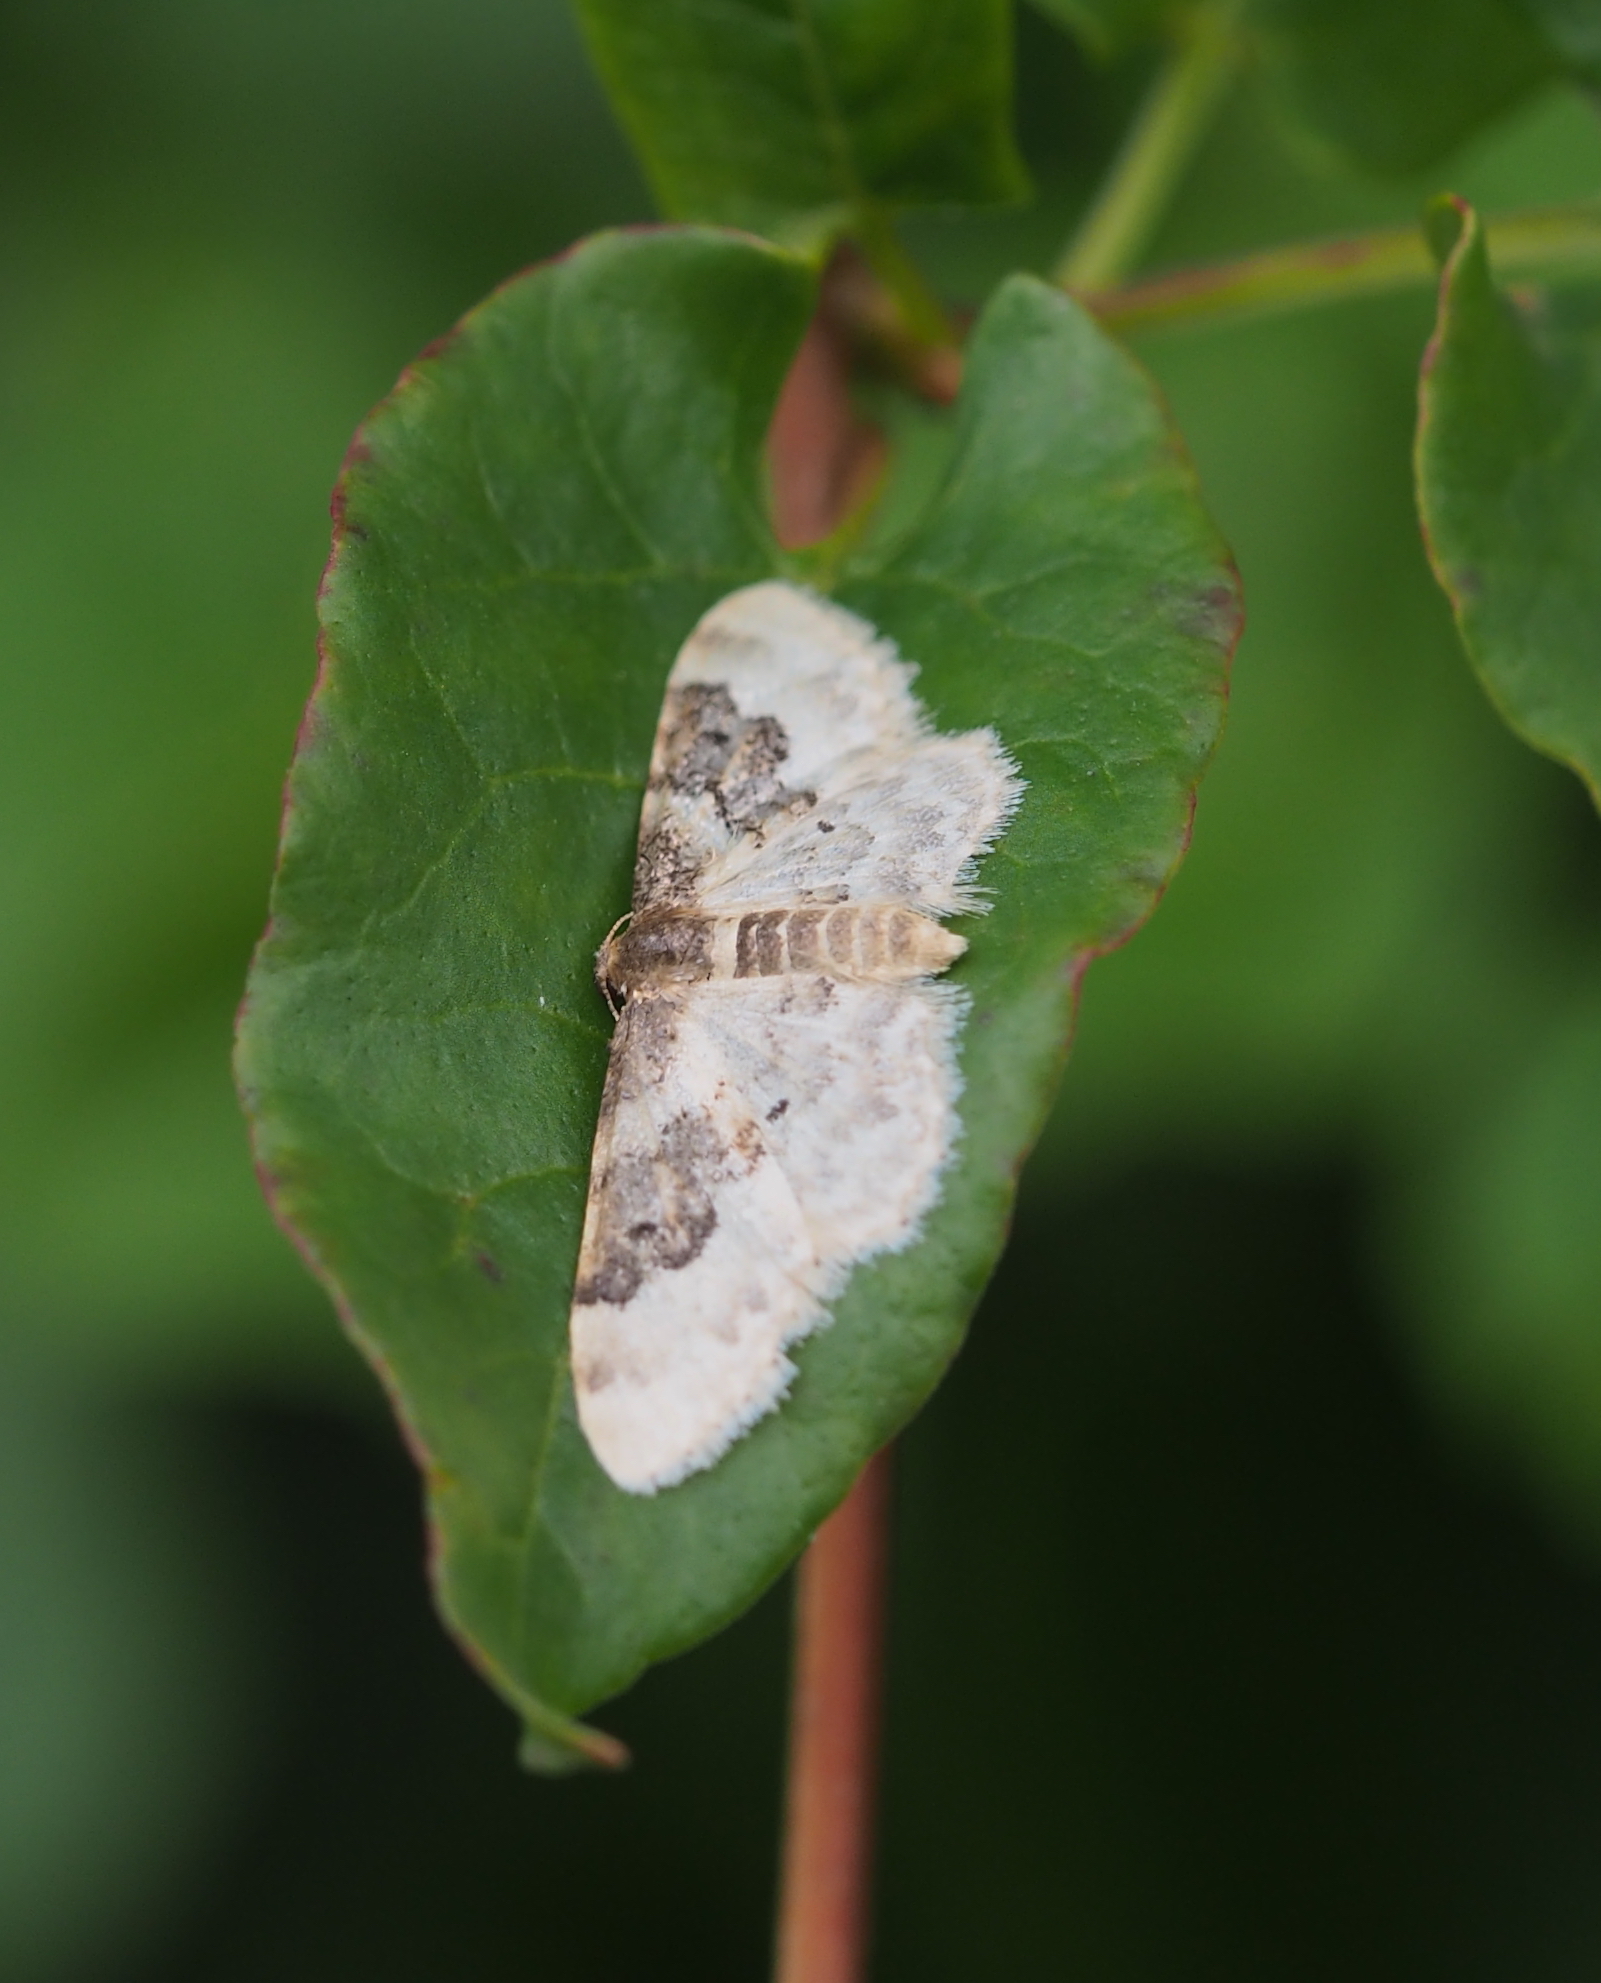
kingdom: Animalia
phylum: Arthropoda
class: Insecta
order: Lepidoptera
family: Geometridae
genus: Idaea
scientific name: Idaea rusticata
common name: Least carpet
